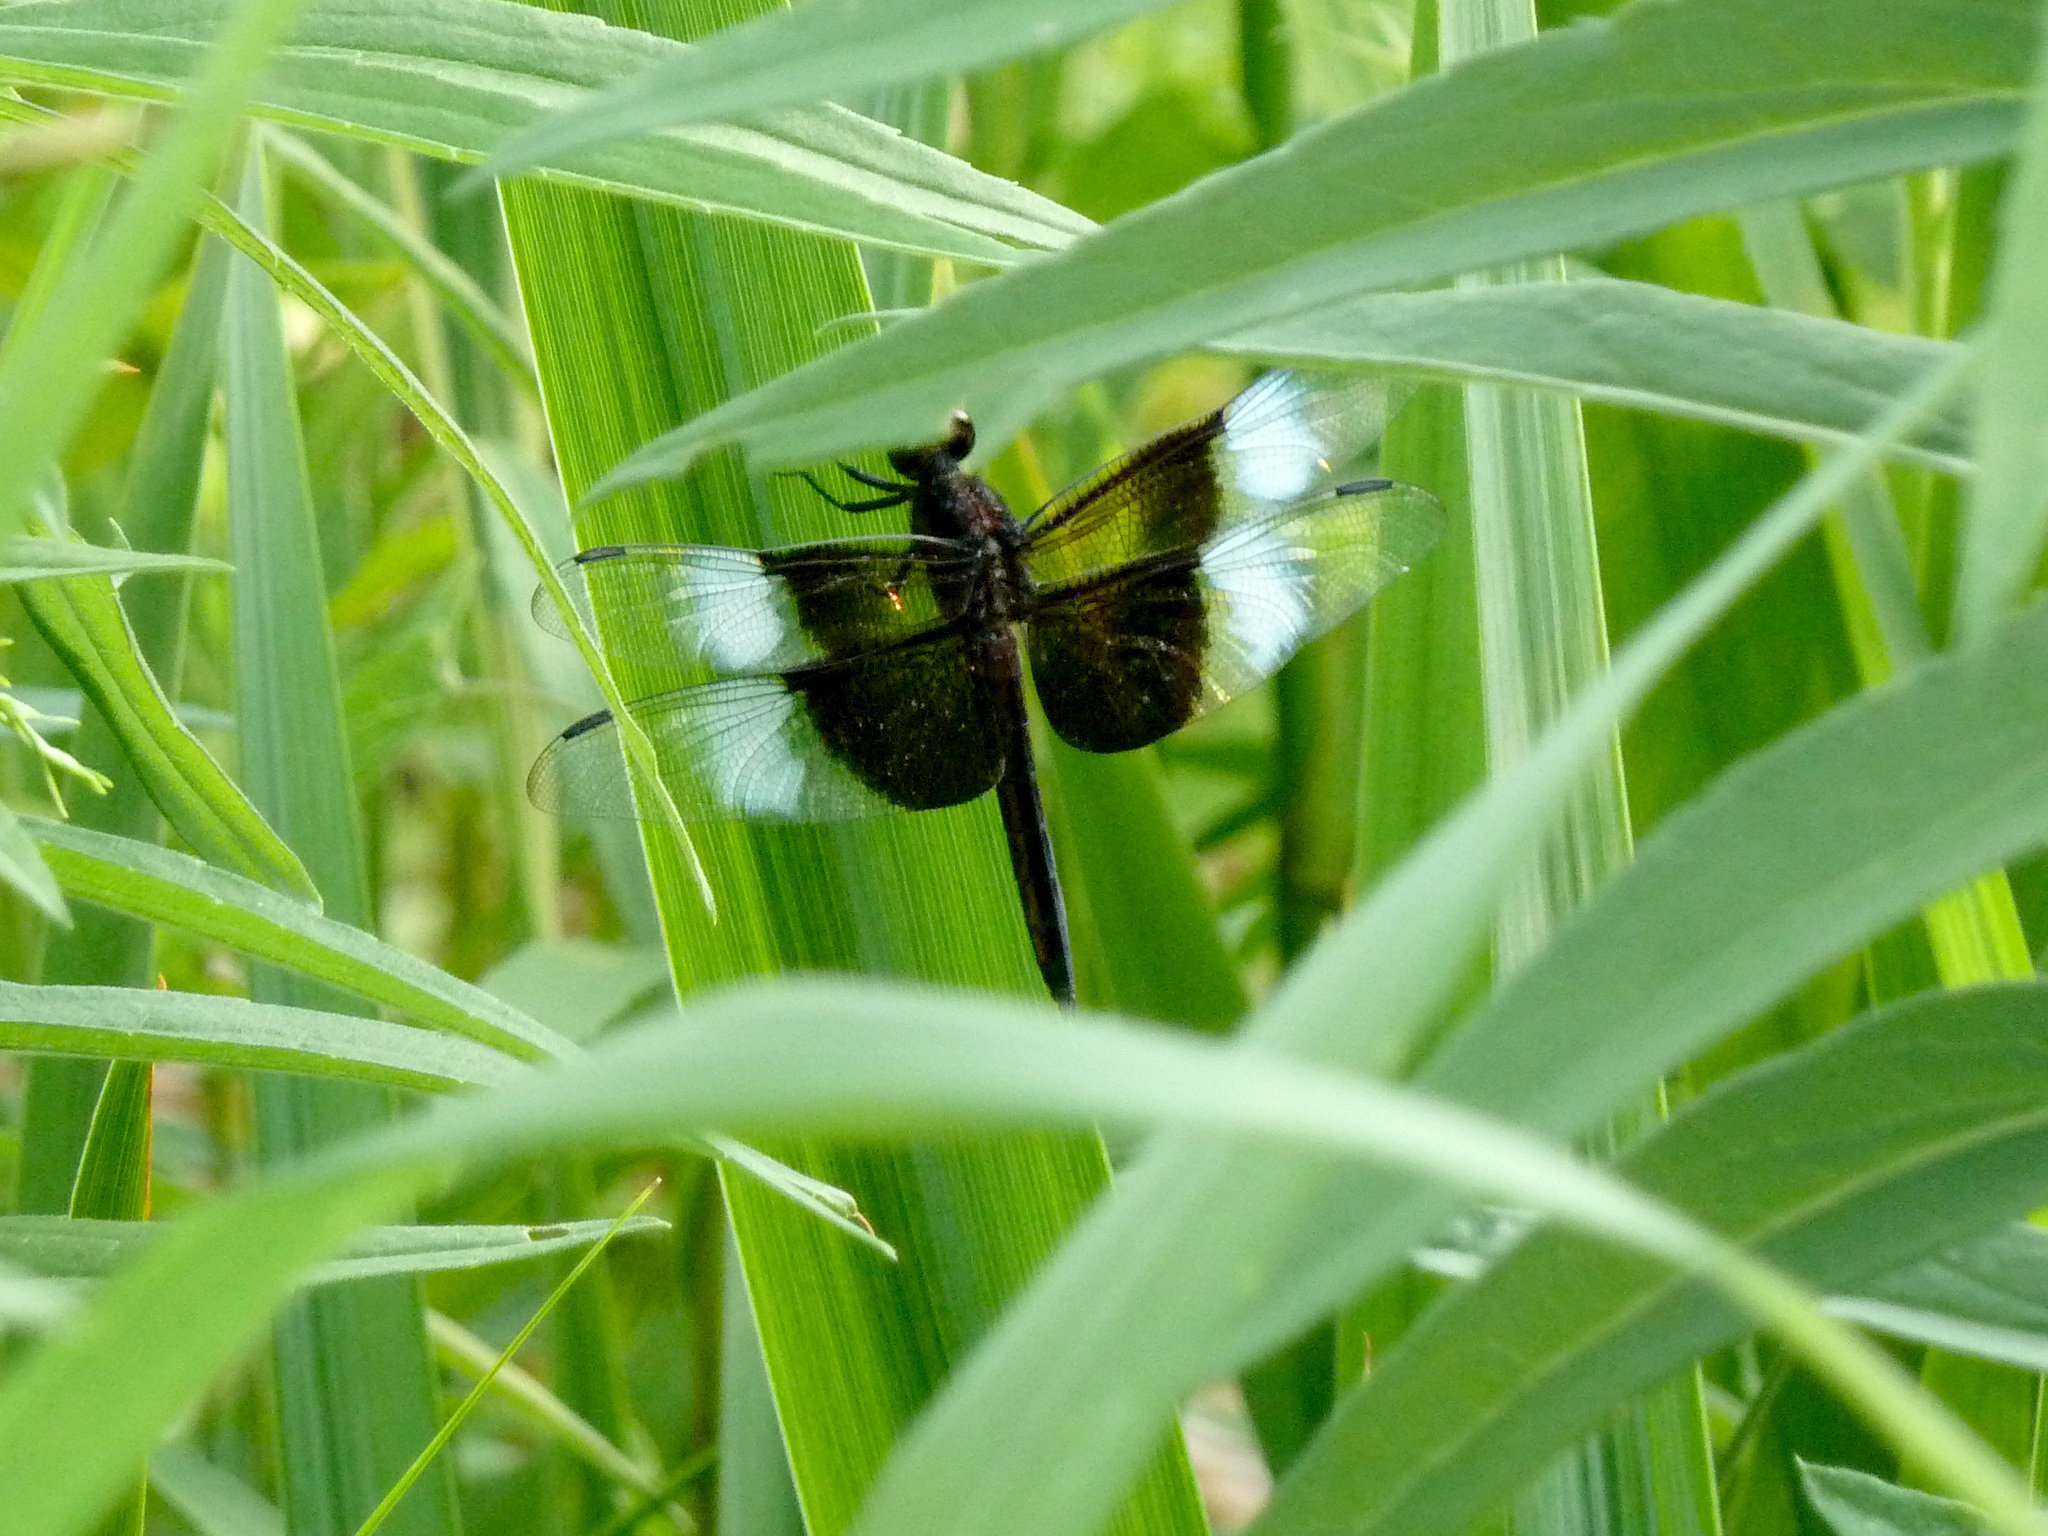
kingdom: Animalia
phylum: Arthropoda
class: Insecta
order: Odonata
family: Libellulidae
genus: Libellula
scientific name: Libellula luctuosa
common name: Widow skimmer
